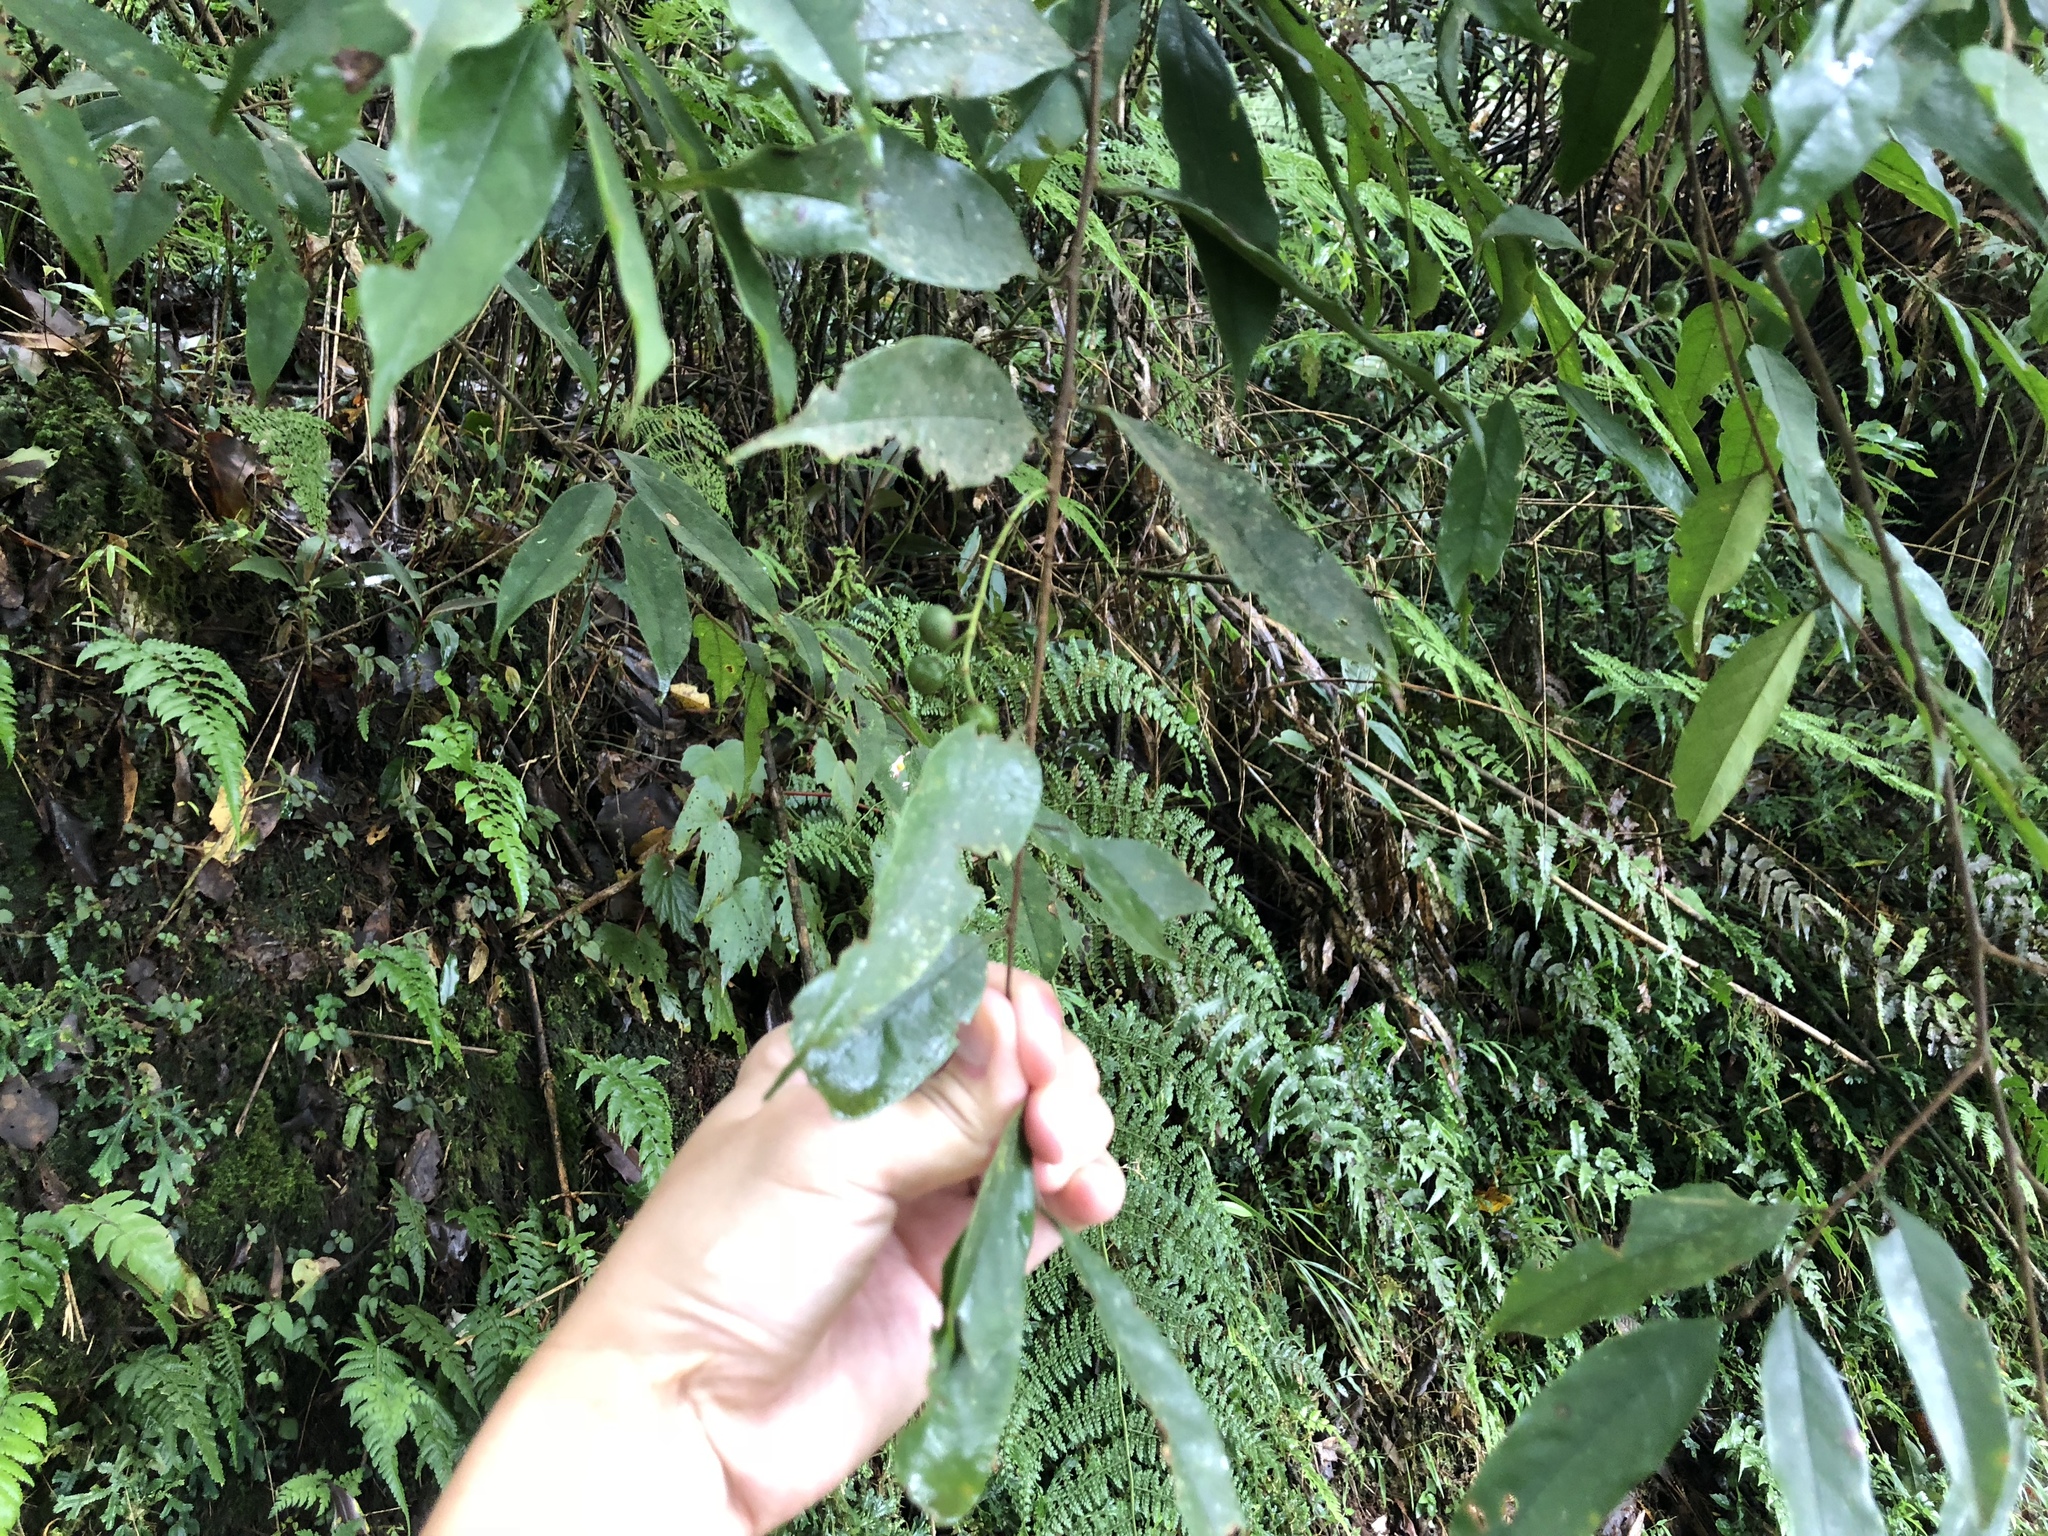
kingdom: Plantae
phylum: Tracheophyta
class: Magnoliopsida
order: Rosales
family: Rosaceae
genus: Prunus
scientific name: Prunus phaeosticta
